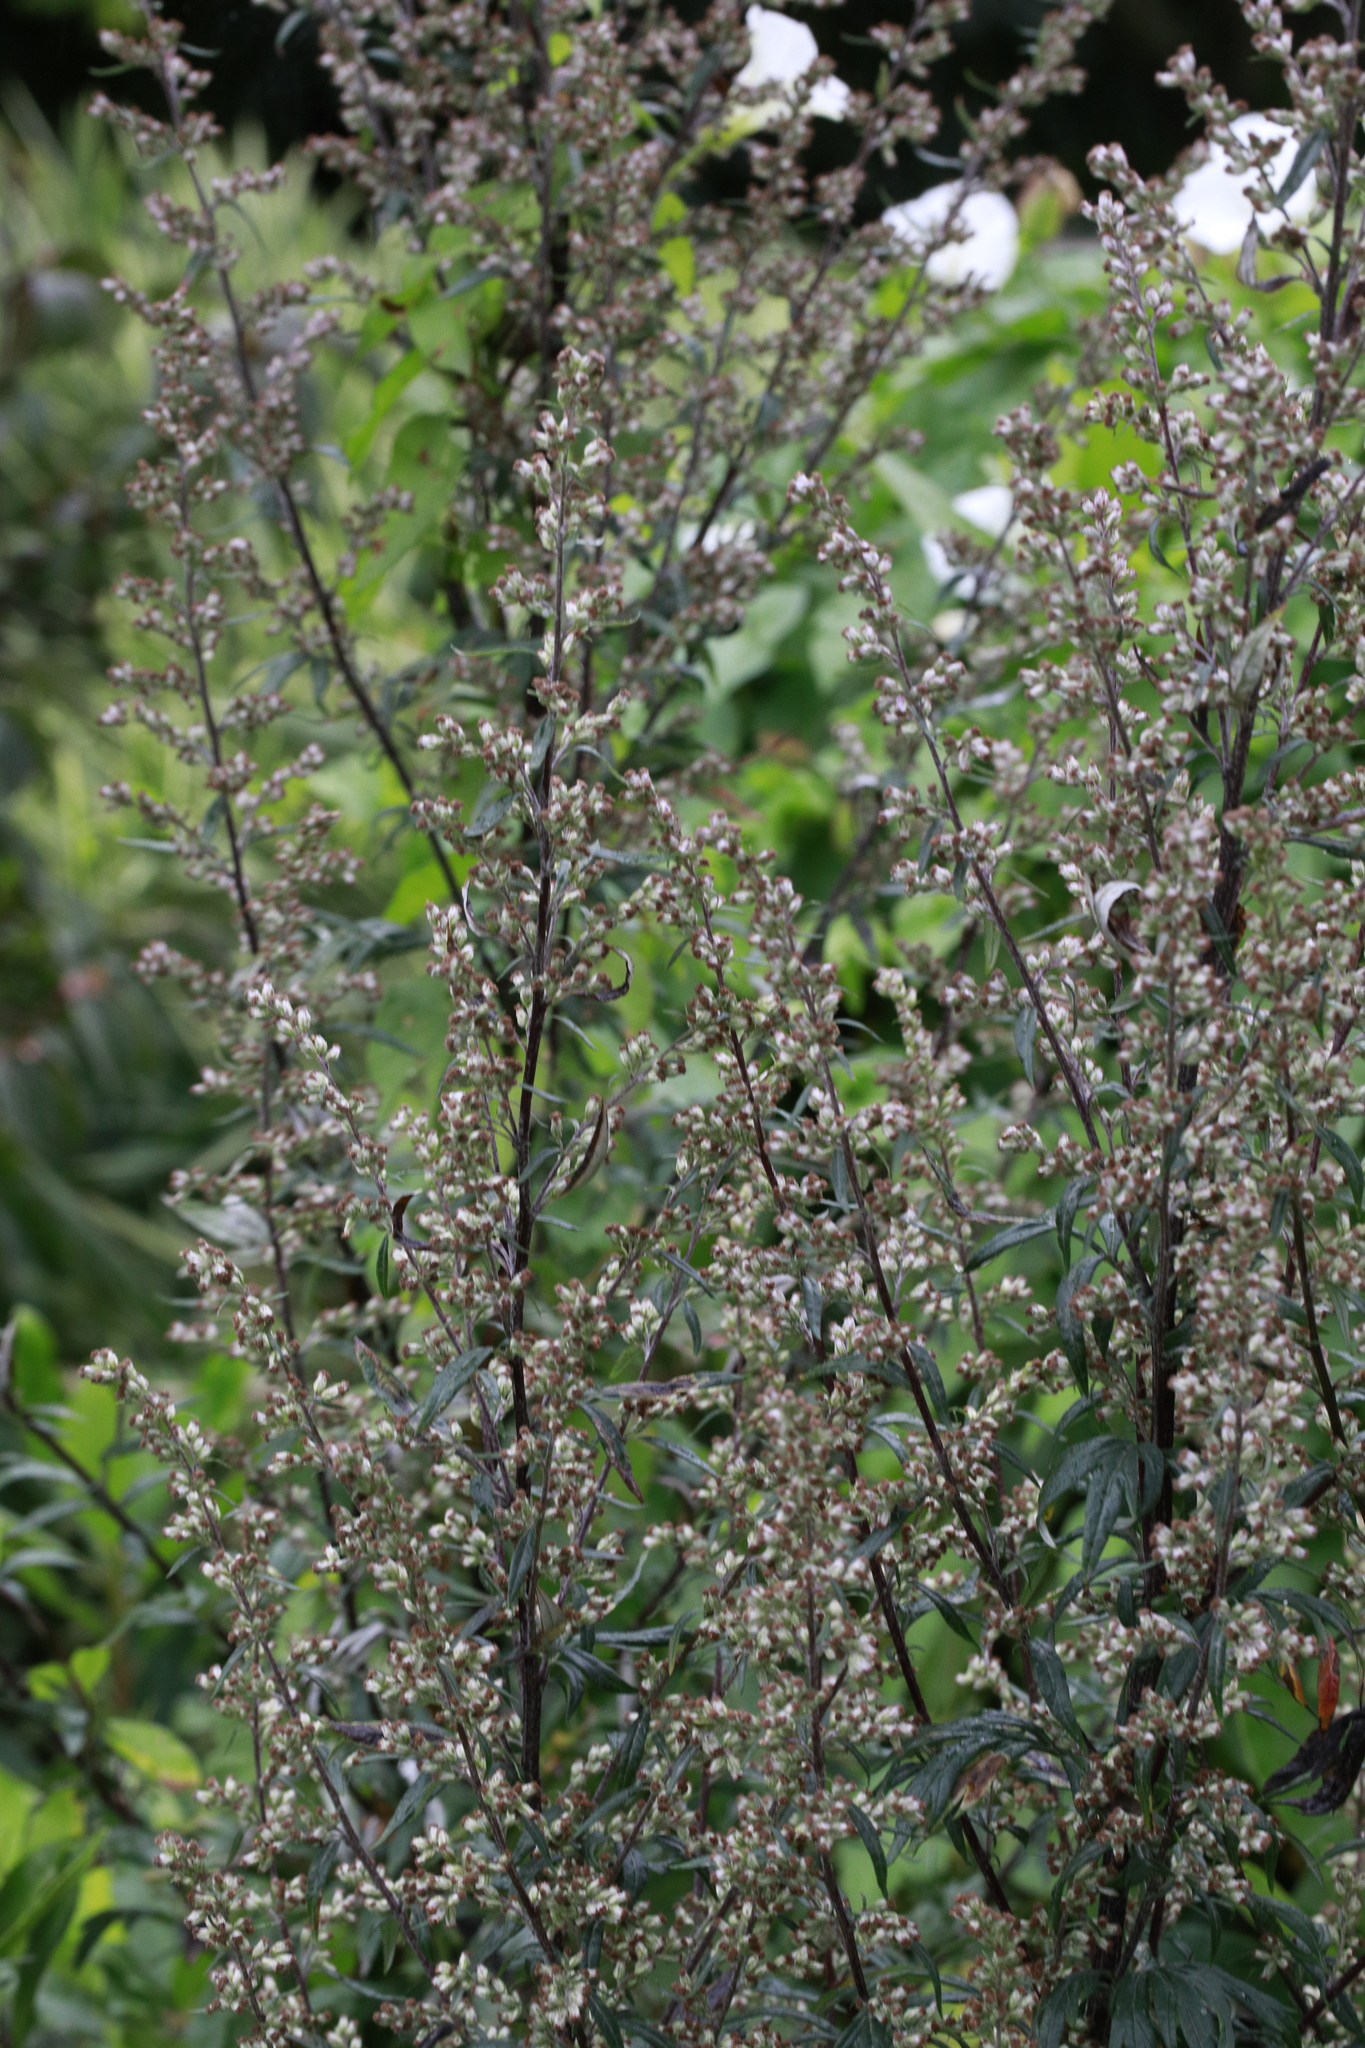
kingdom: Plantae
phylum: Tracheophyta
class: Magnoliopsida
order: Asterales
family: Asteraceae
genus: Artemisia
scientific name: Artemisia vulgaris
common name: Mugwort
